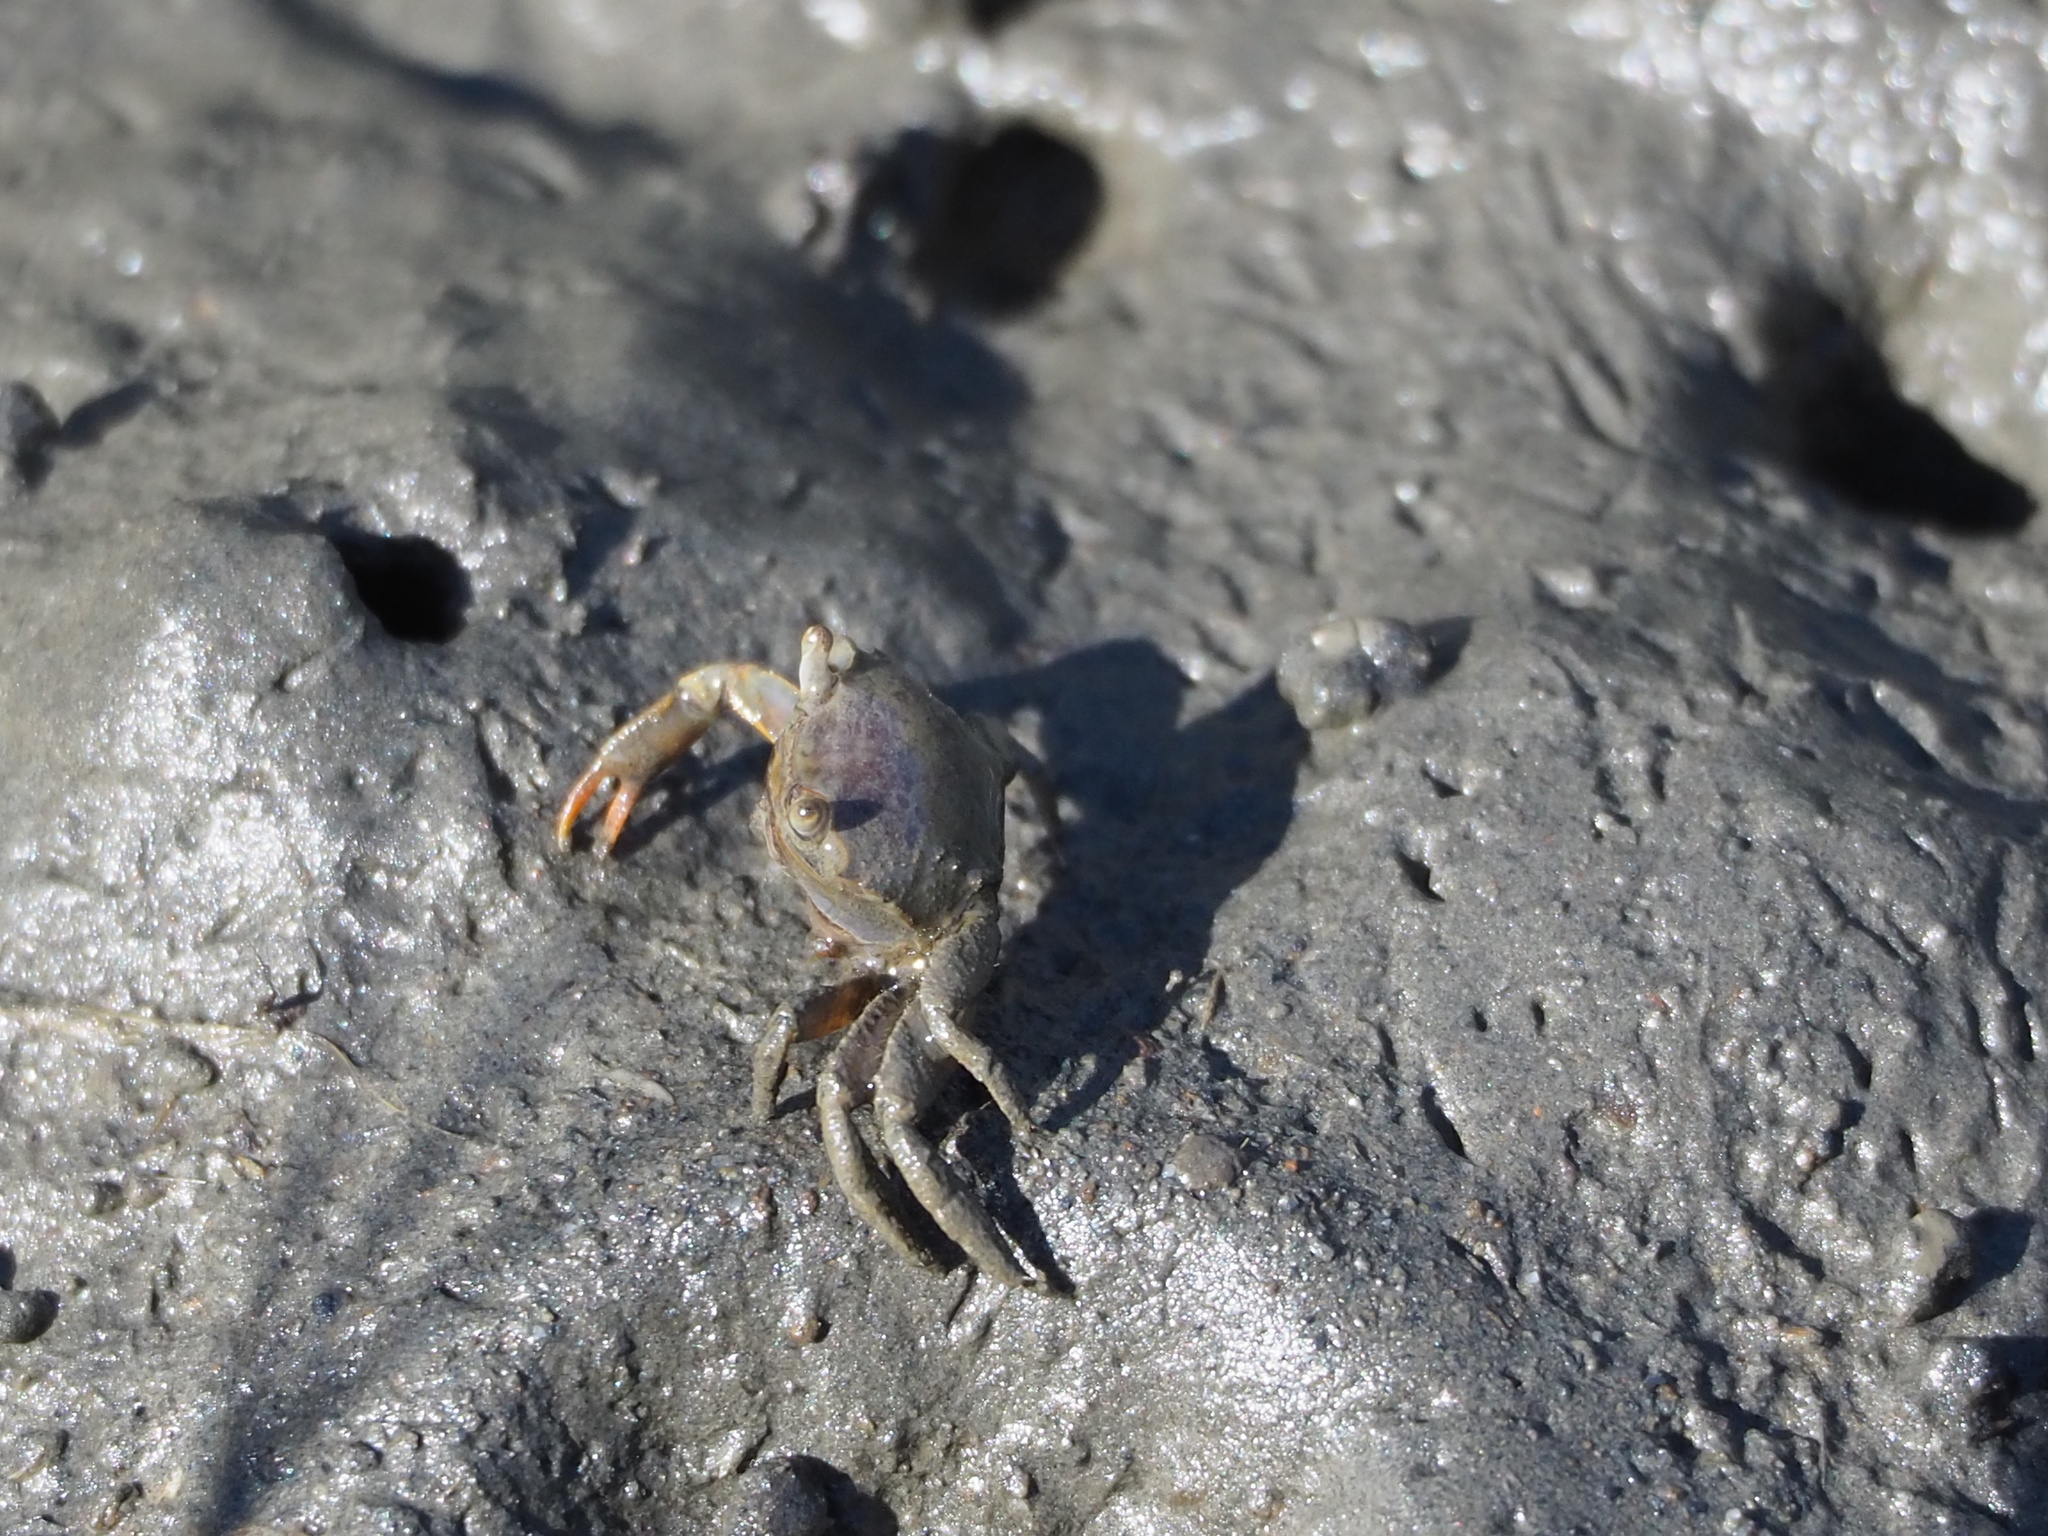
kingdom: Animalia
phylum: Arthropoda
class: Malacostraca
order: Decapoda
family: Varunidae
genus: Metaplax
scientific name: Metaplax elegans
